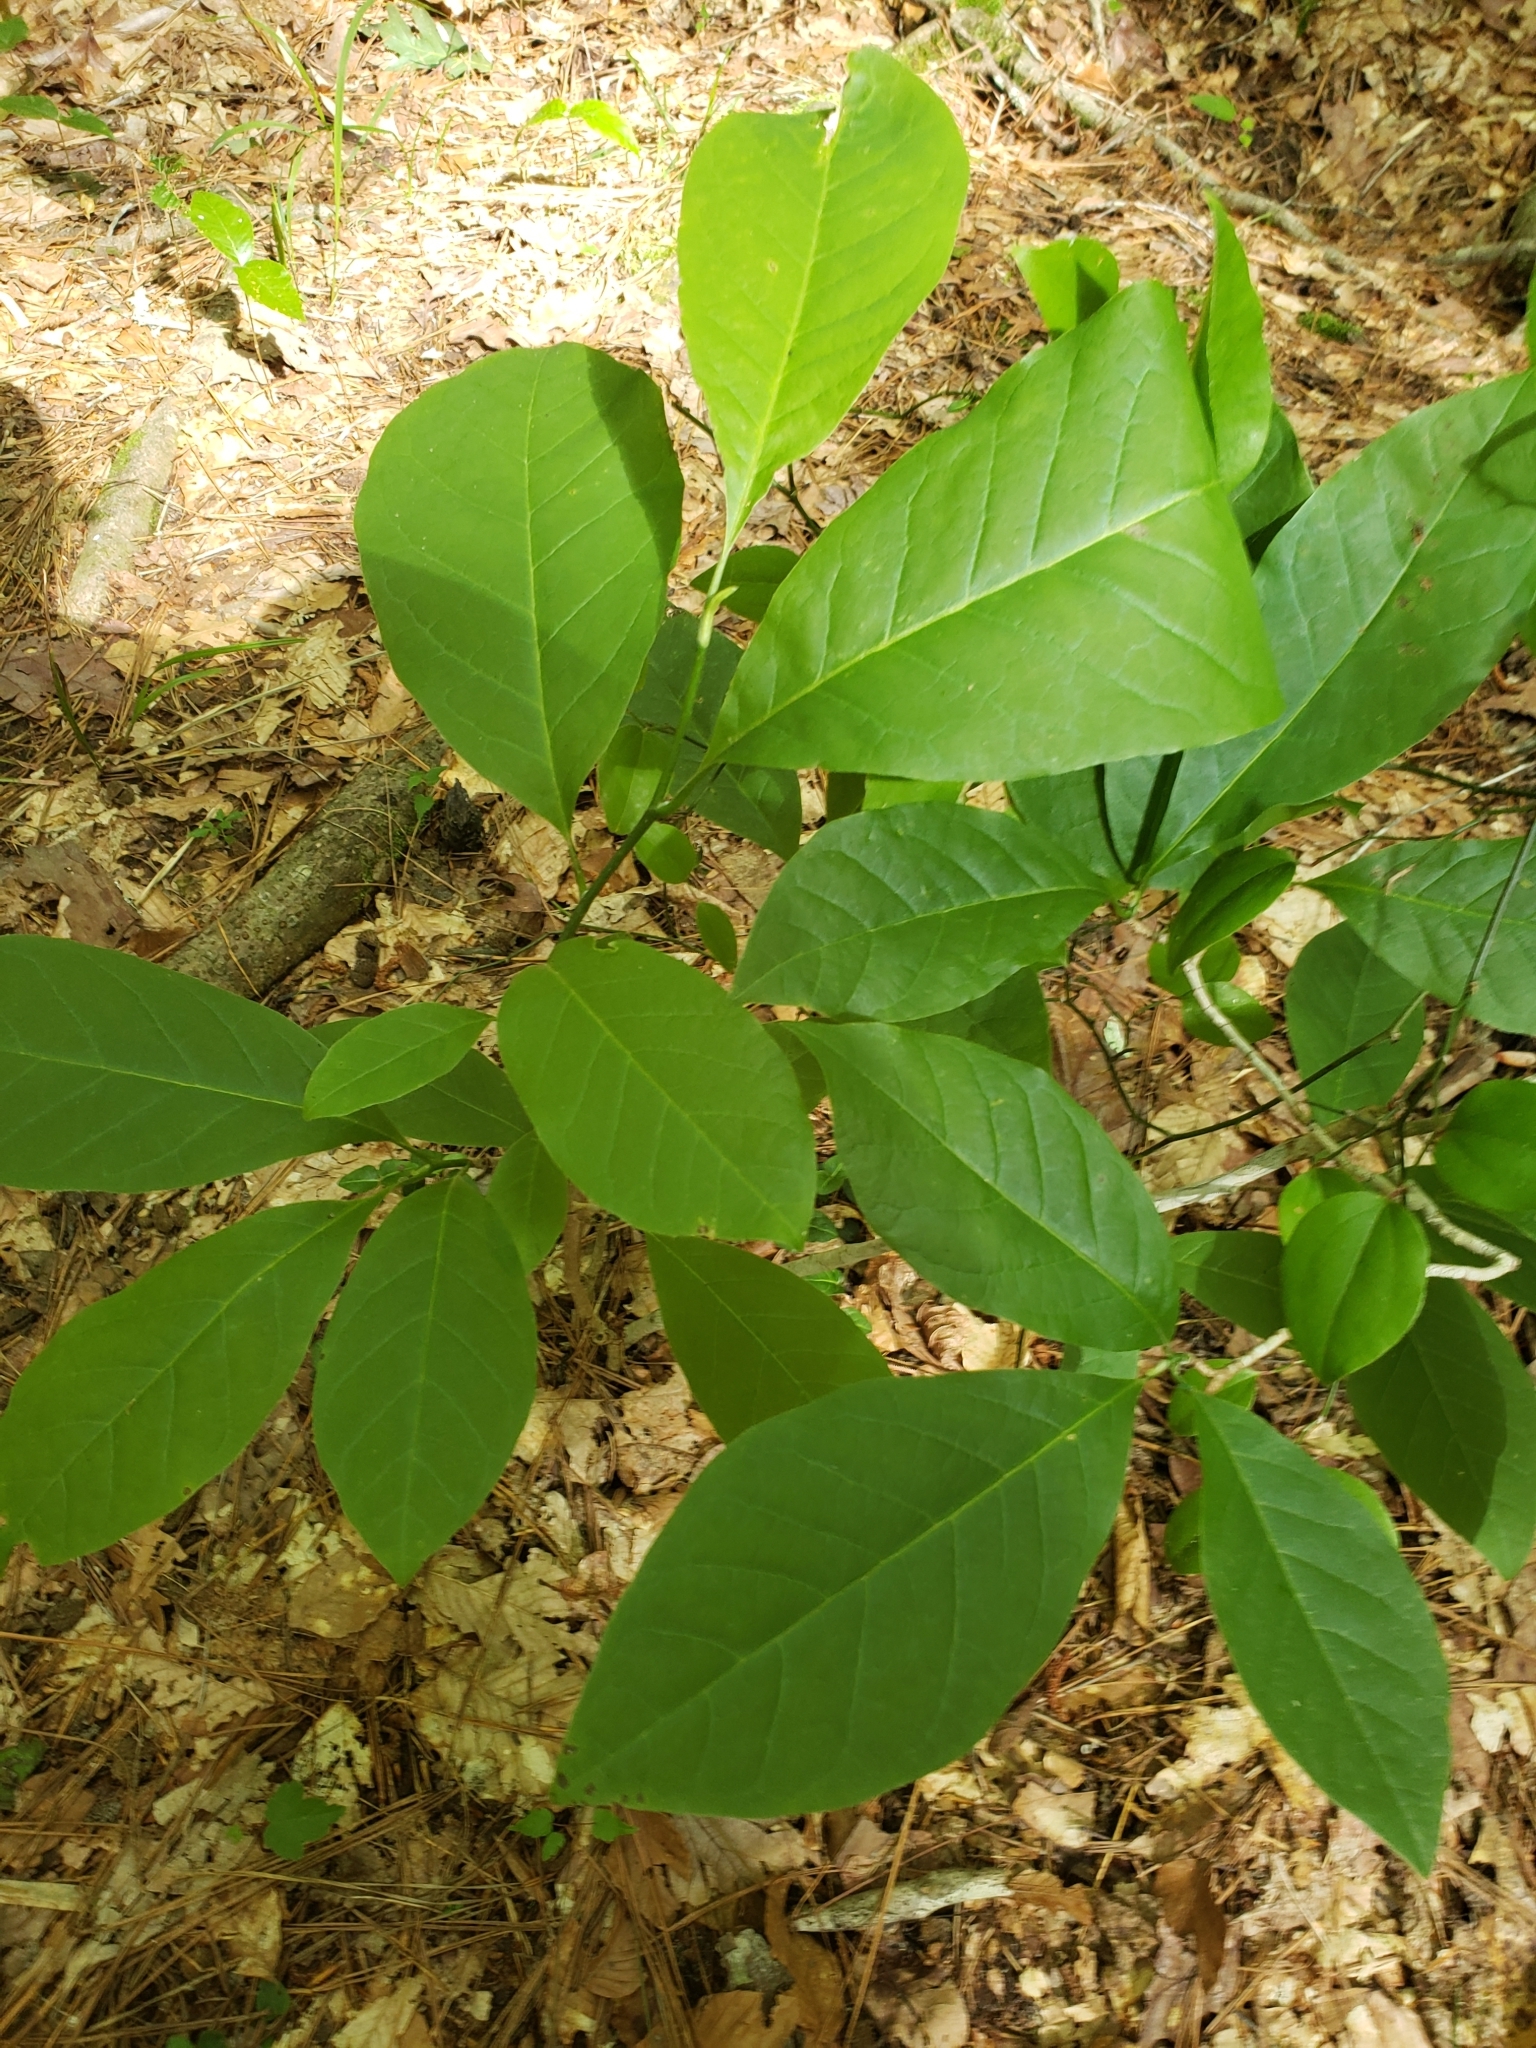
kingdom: Plantae
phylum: Tracheophyta
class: Magnoliopsida
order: Magnoliales
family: Annonaceae
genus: Asimina
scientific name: Asimina triloba
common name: Dog-banana
